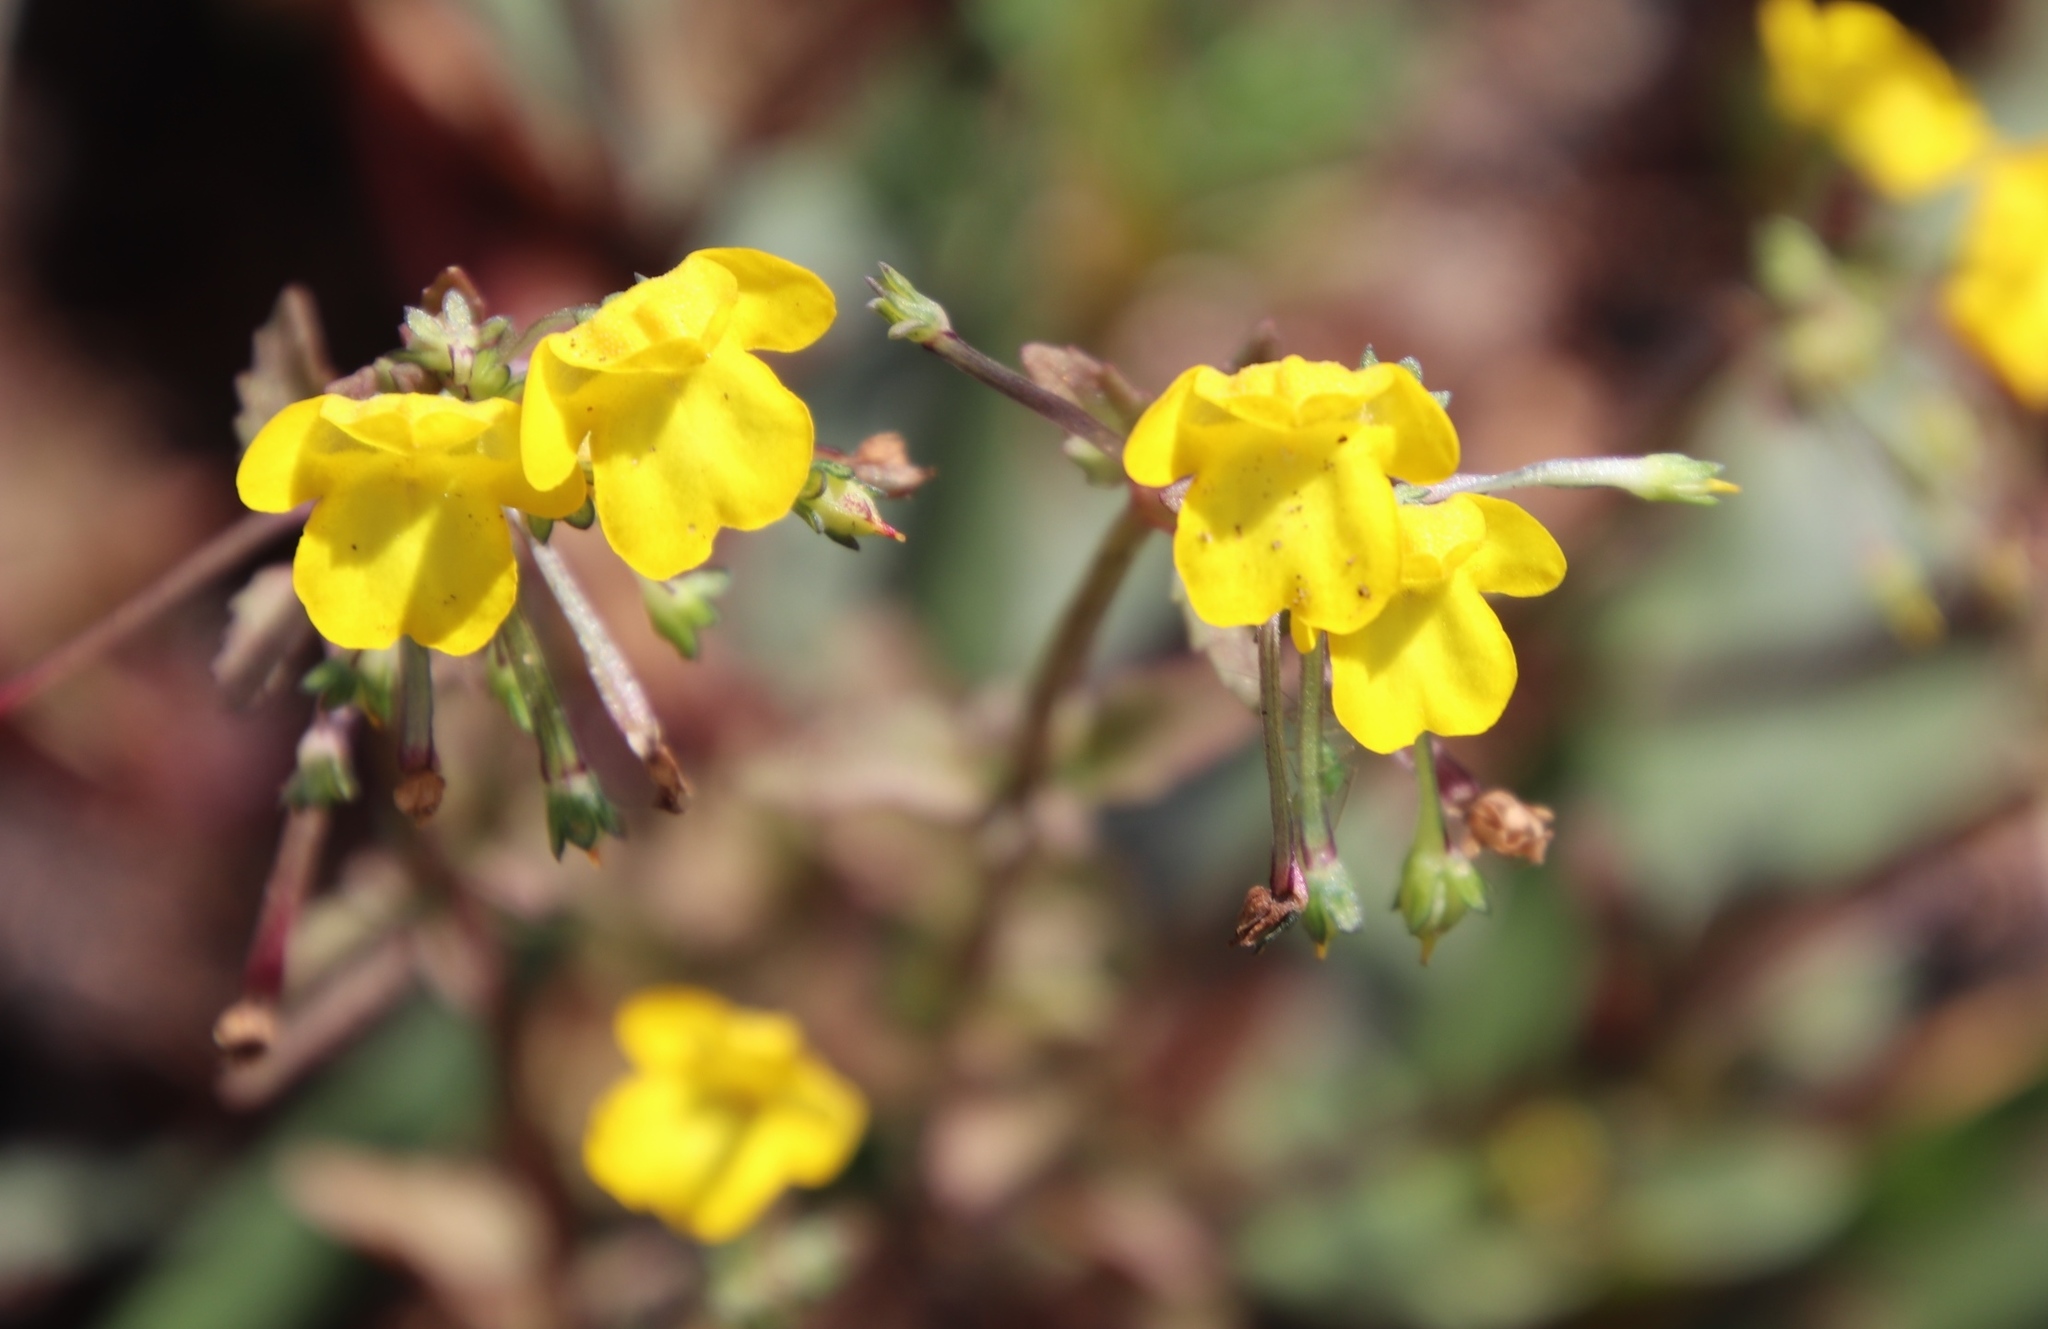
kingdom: Plantae
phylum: Tracheophyta
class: Magnoliopsida
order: Lamiales
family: Scrophulariaceae
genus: Hemimeris
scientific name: Hemimeris racemosa
